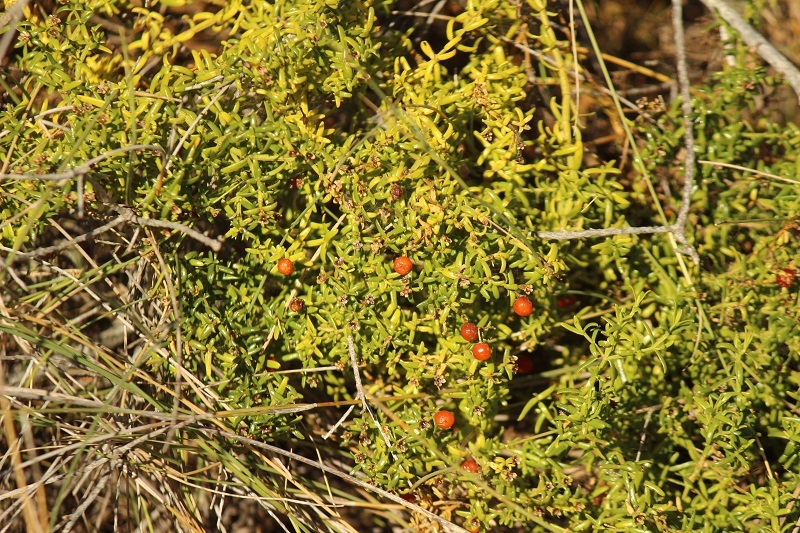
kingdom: Plantae
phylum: Tracheophyta
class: Magnoliopsida
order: Gentianales
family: Gentianaceae
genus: Chironia
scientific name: Chironia baccifera
